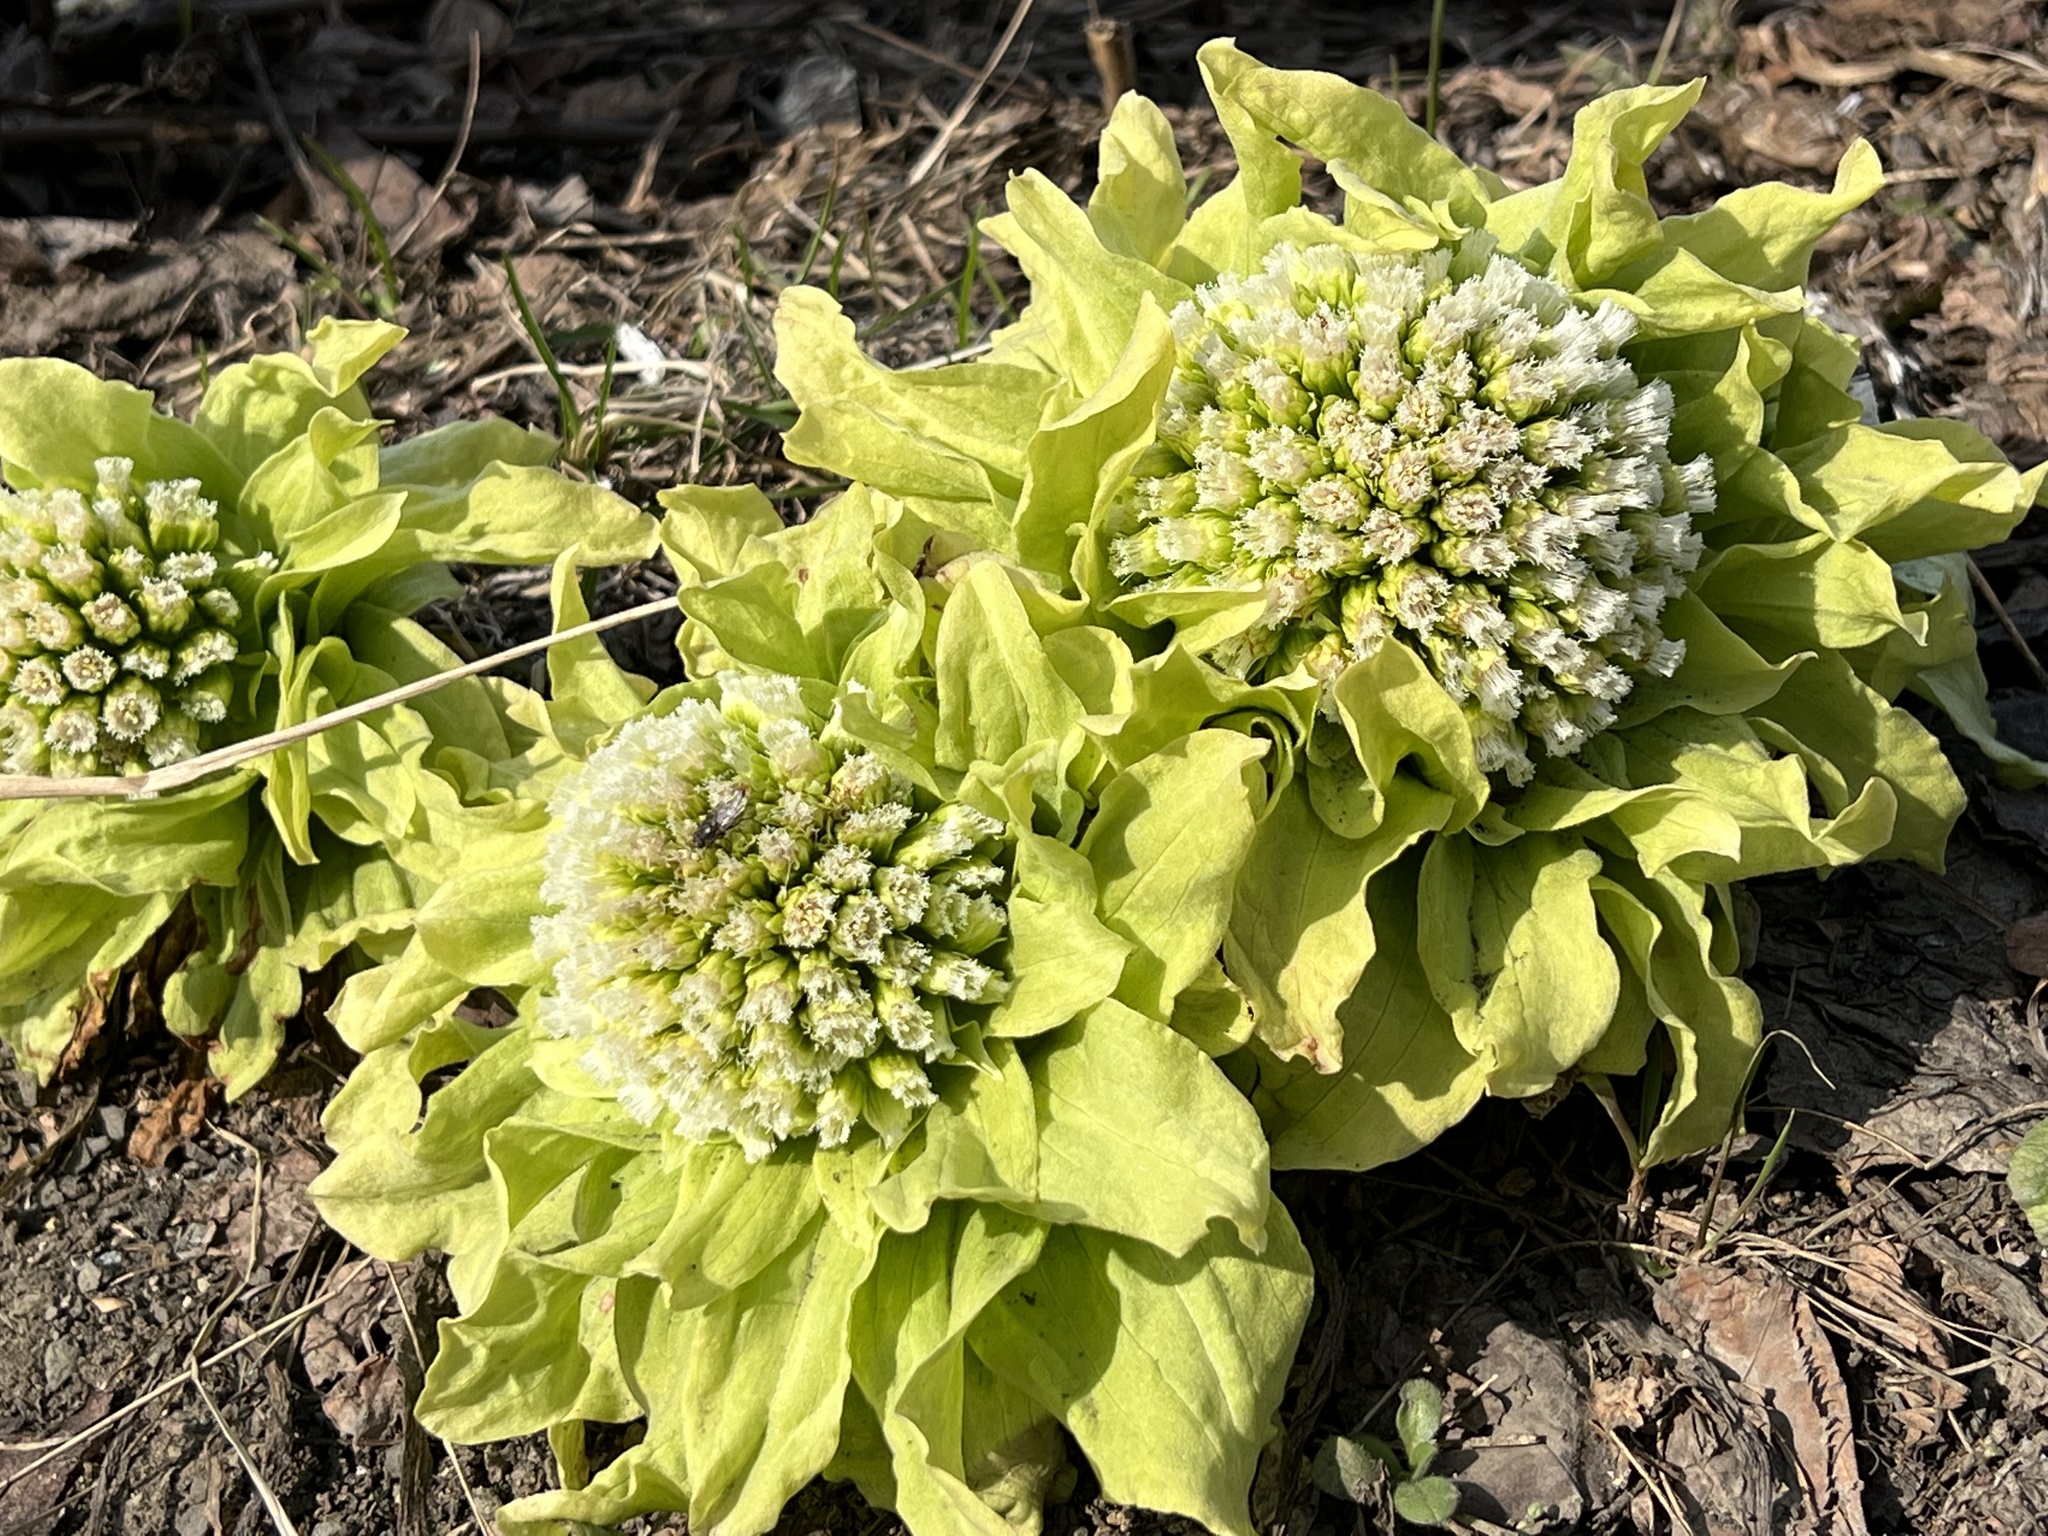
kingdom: Plantae
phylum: Tracheophyta
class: Magnoliopsida
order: Asterales
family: Asteraceae
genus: Petasites
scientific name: Petasites japonicus
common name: Giant butterbur
